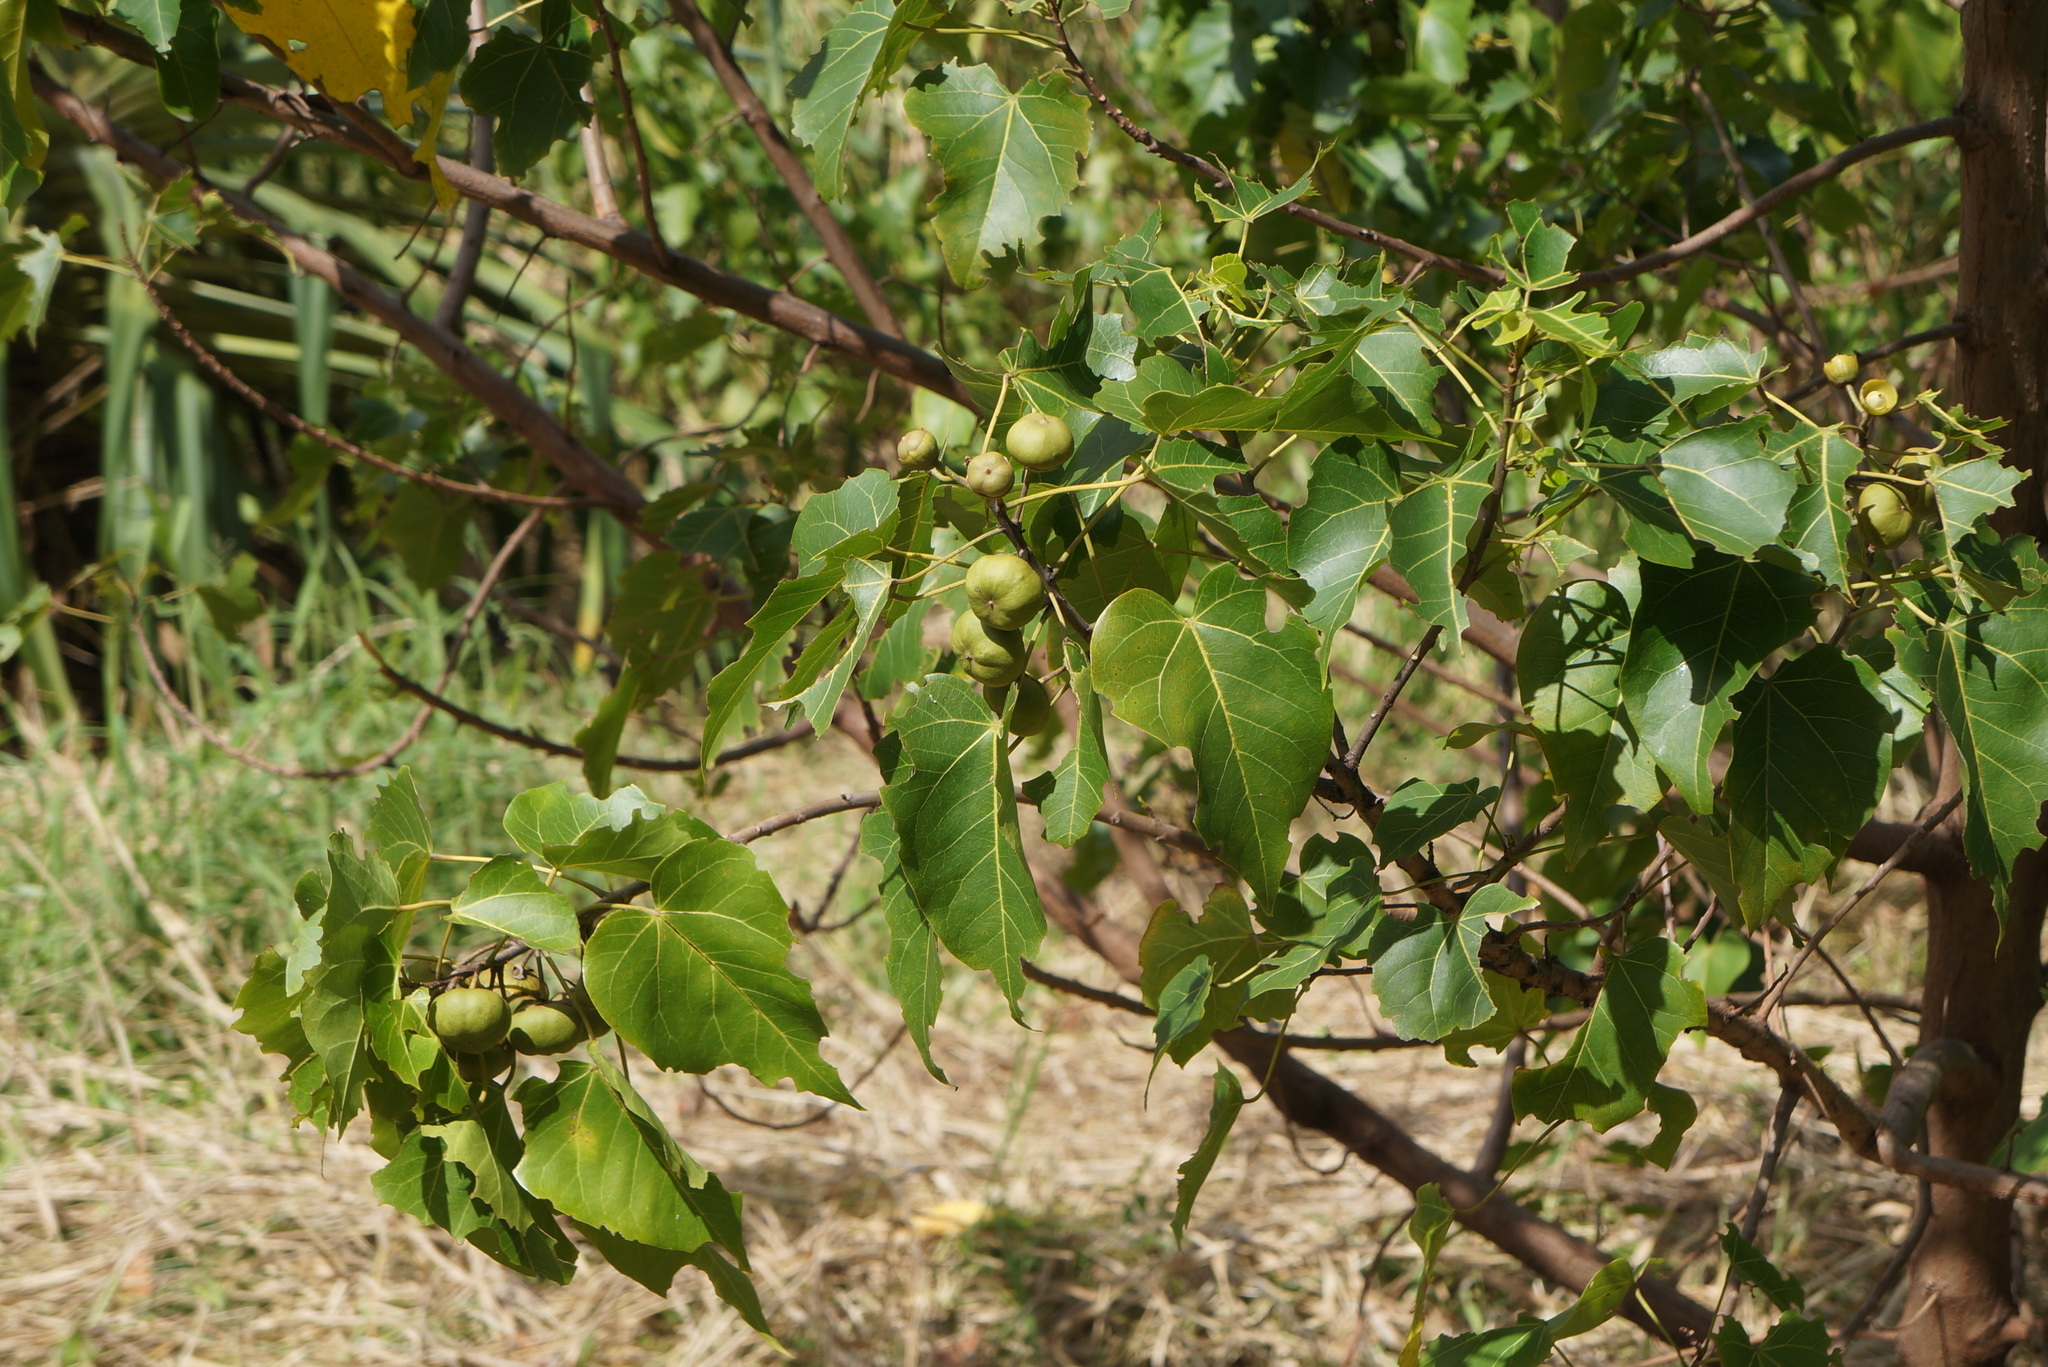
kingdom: Plantae
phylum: Tracheophyta
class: Magnoliopsida
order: Malvales
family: Malvaceae
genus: Thespesia
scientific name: Thespesia populnea
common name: Seaside mahoe
